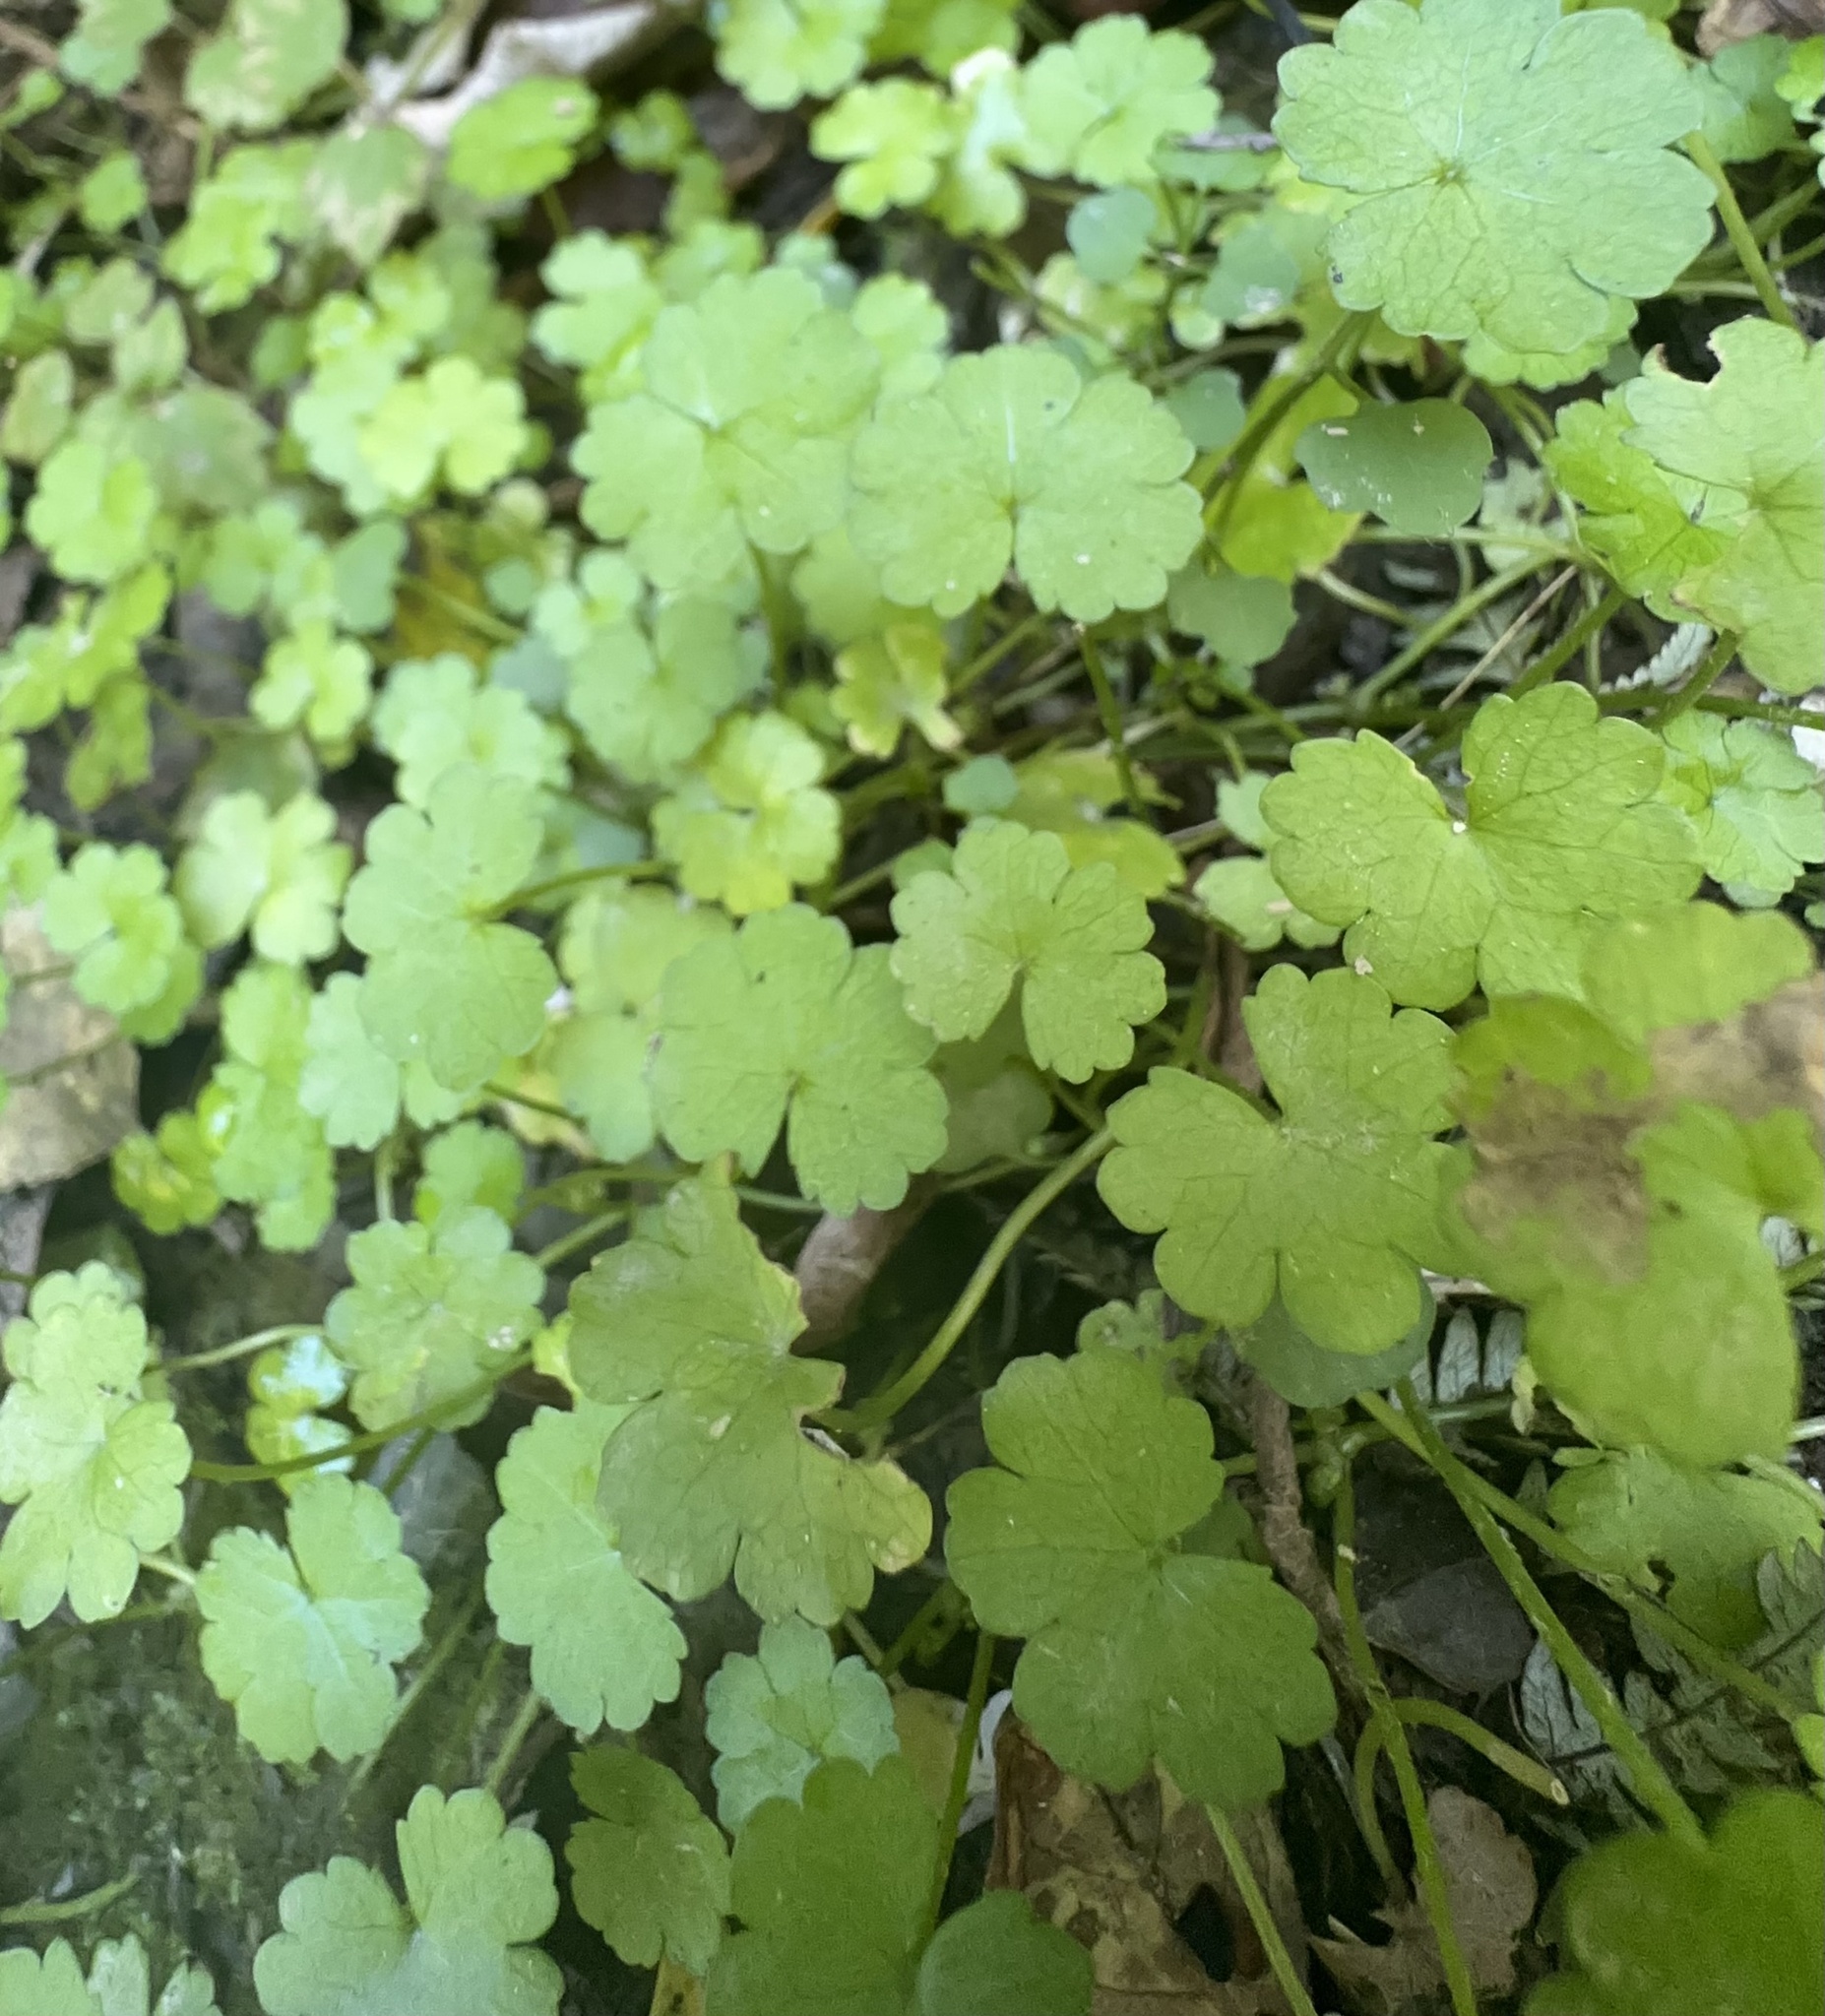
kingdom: Plantae
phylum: Tracheophyta
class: Magnoliopsida
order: Apiales
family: Araliaceae
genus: Hydrocotyle
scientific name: Hydrocotyle heteromeria
